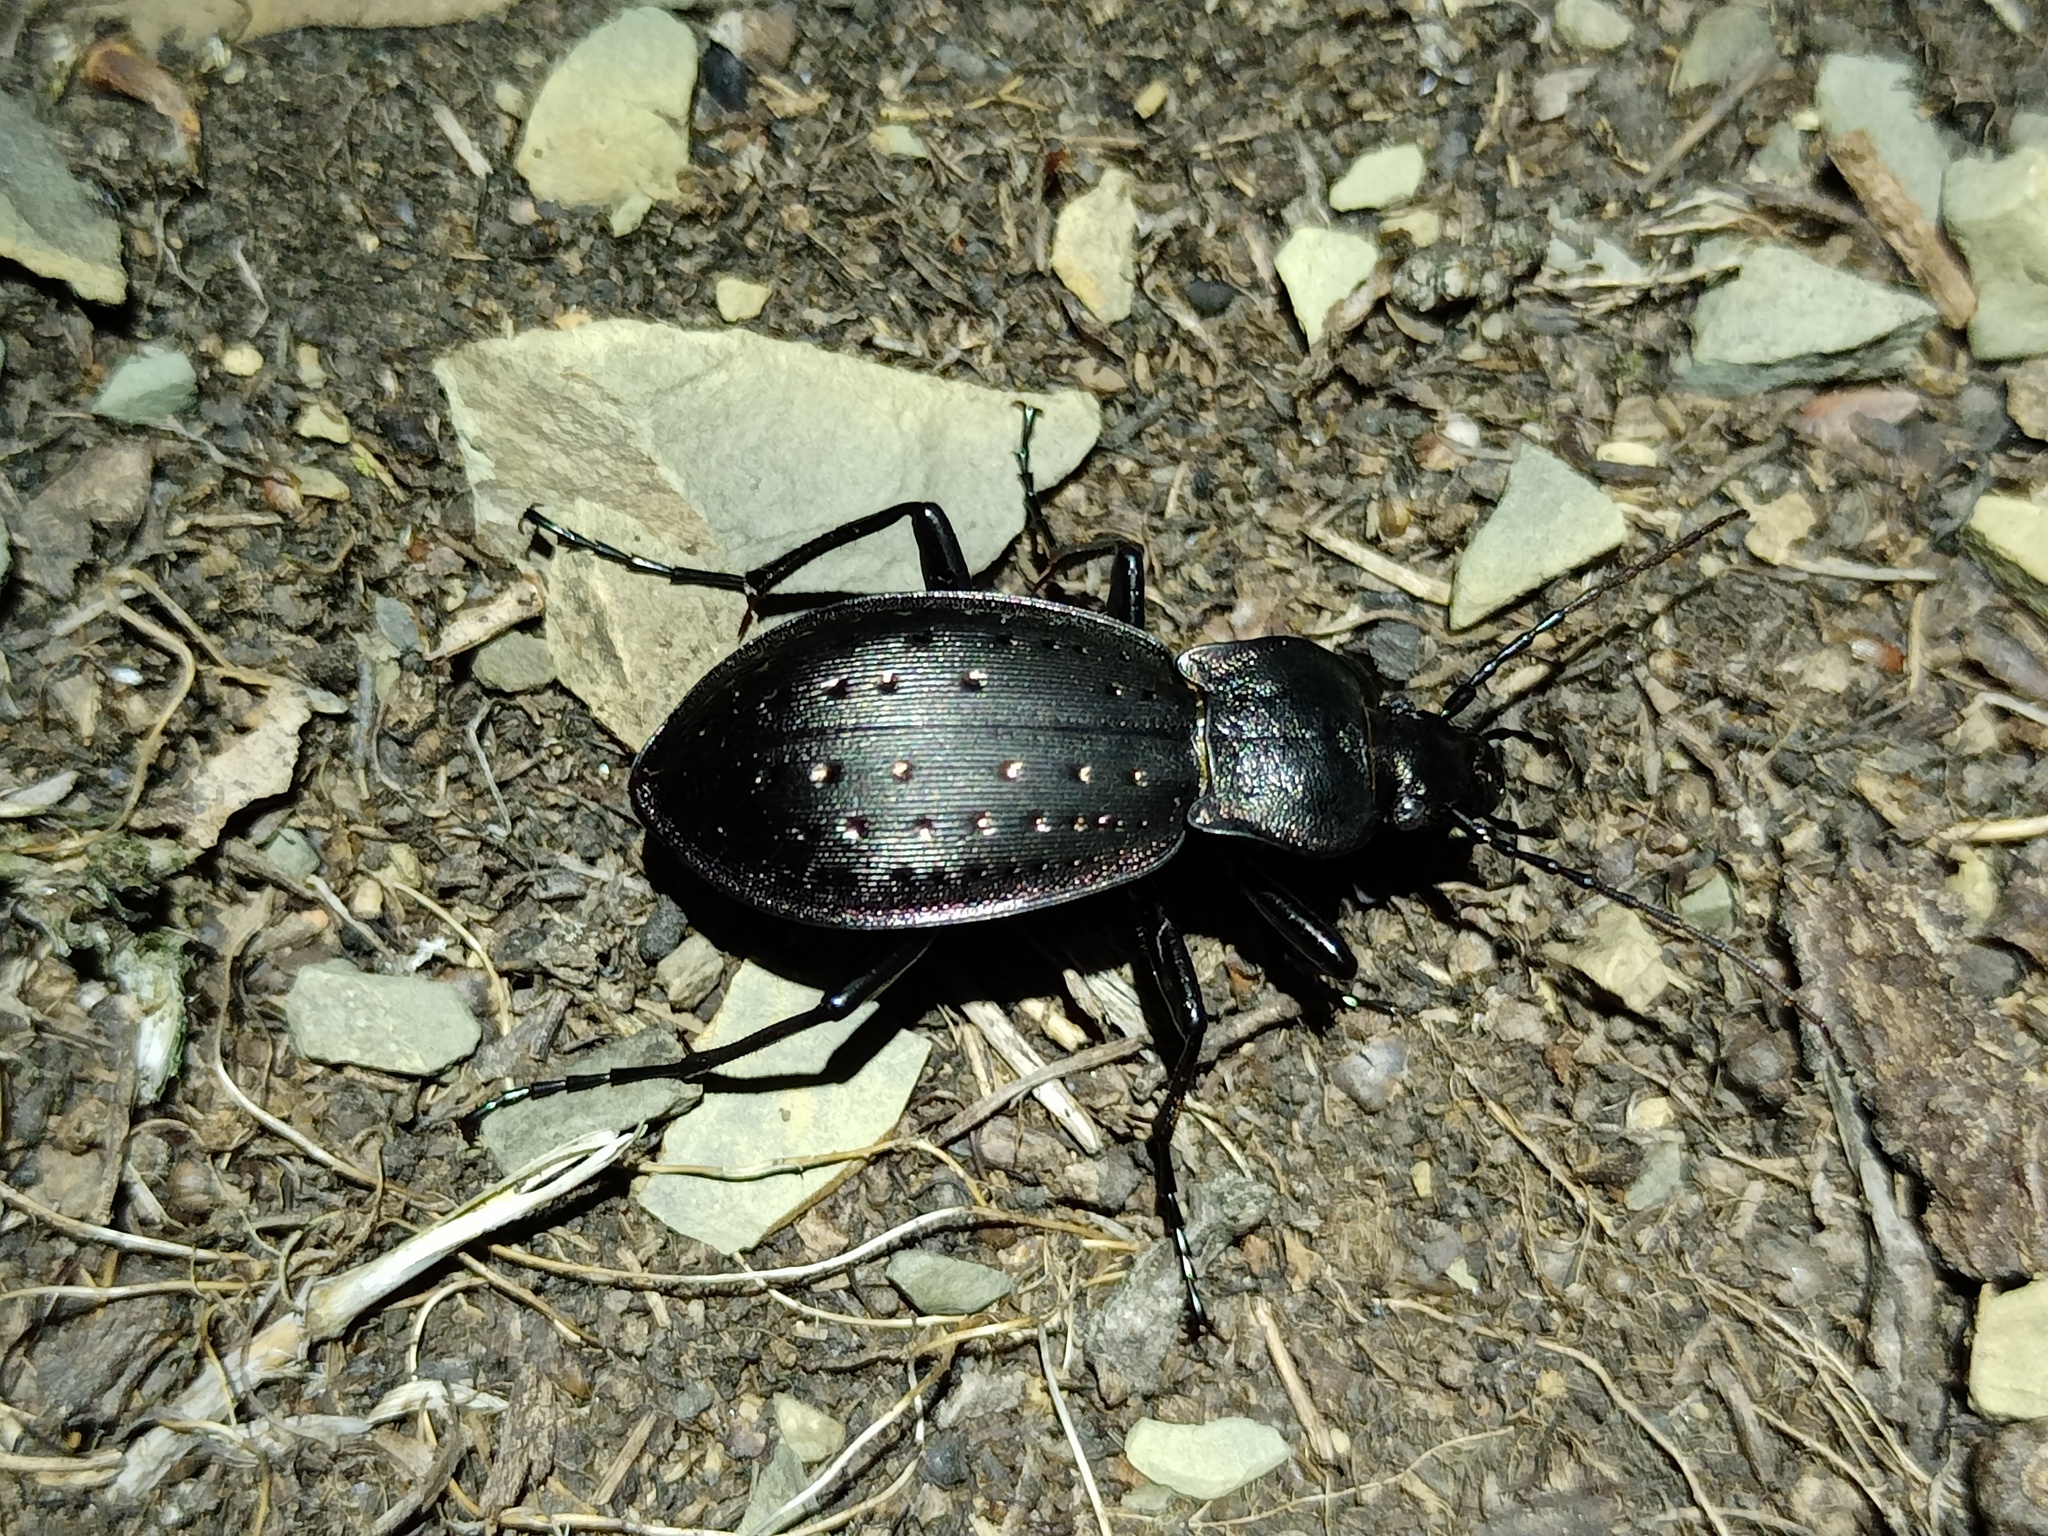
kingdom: Animalia
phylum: Arthropoda
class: Insecta
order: Coleoptera
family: Carabidae
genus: Carabus
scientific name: Carabus hortensis
